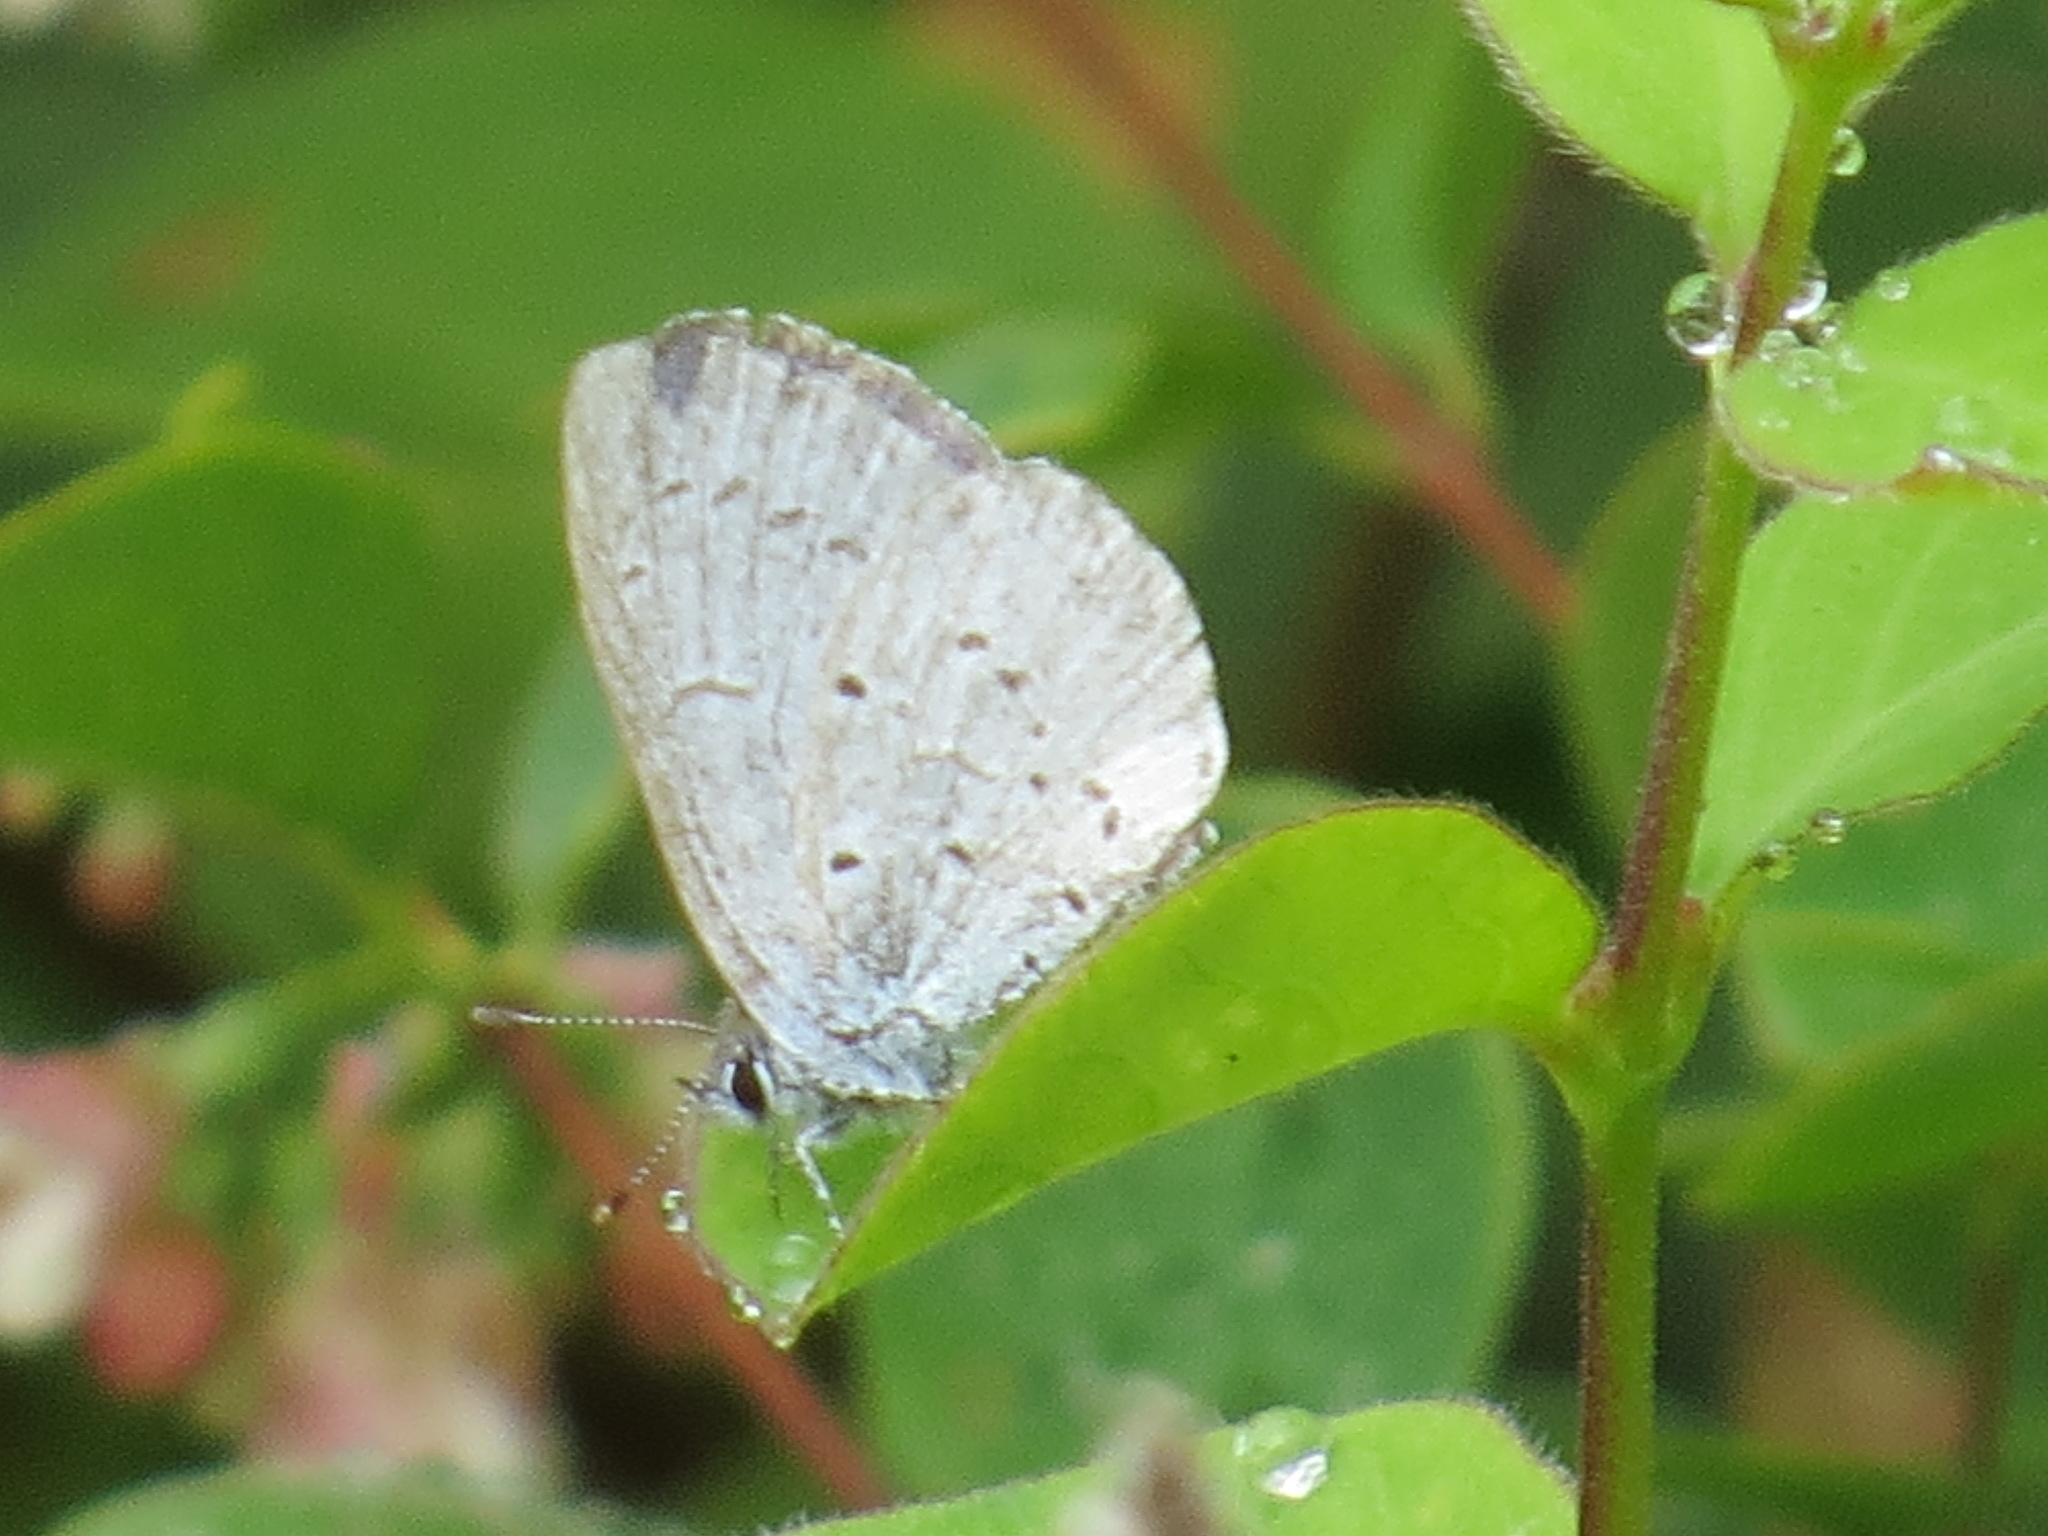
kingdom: Animalia
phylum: Arthropoda
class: Insecta
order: Lepidoptera
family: Lycaenidae
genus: Celastrina
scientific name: Celastrina ladon
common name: Spring azure
